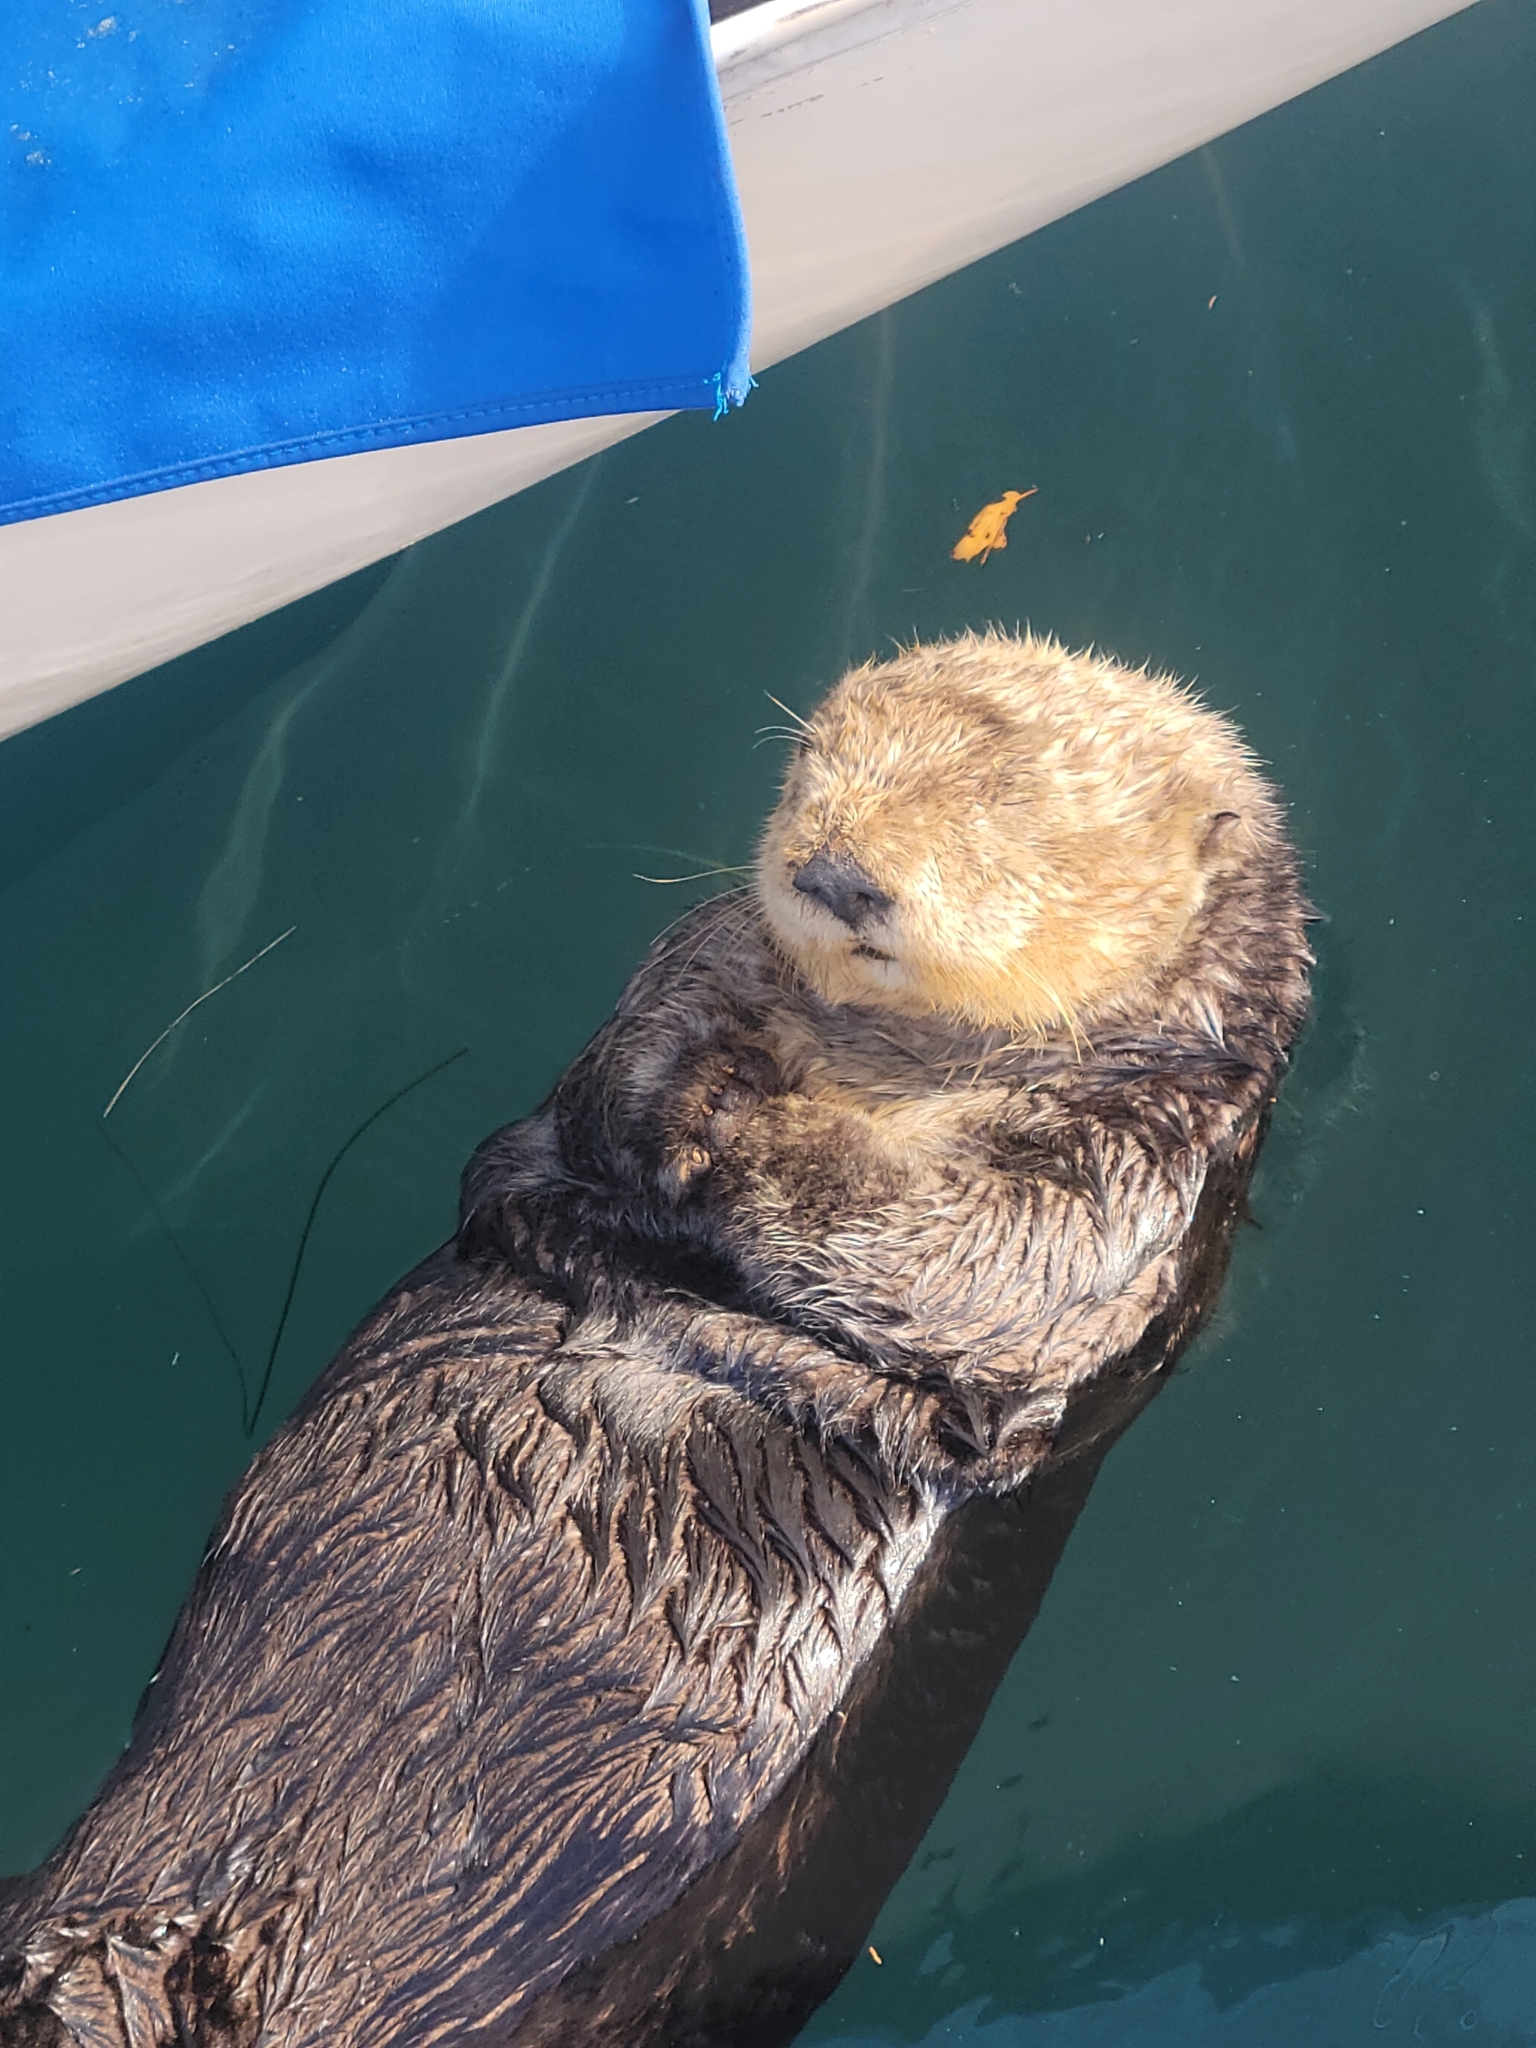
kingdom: Animalia
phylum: Chordata
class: Mammalia
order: Carnivora
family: Mustelidae
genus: Enhydra
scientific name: Enhydra lutris
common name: Sea otter
